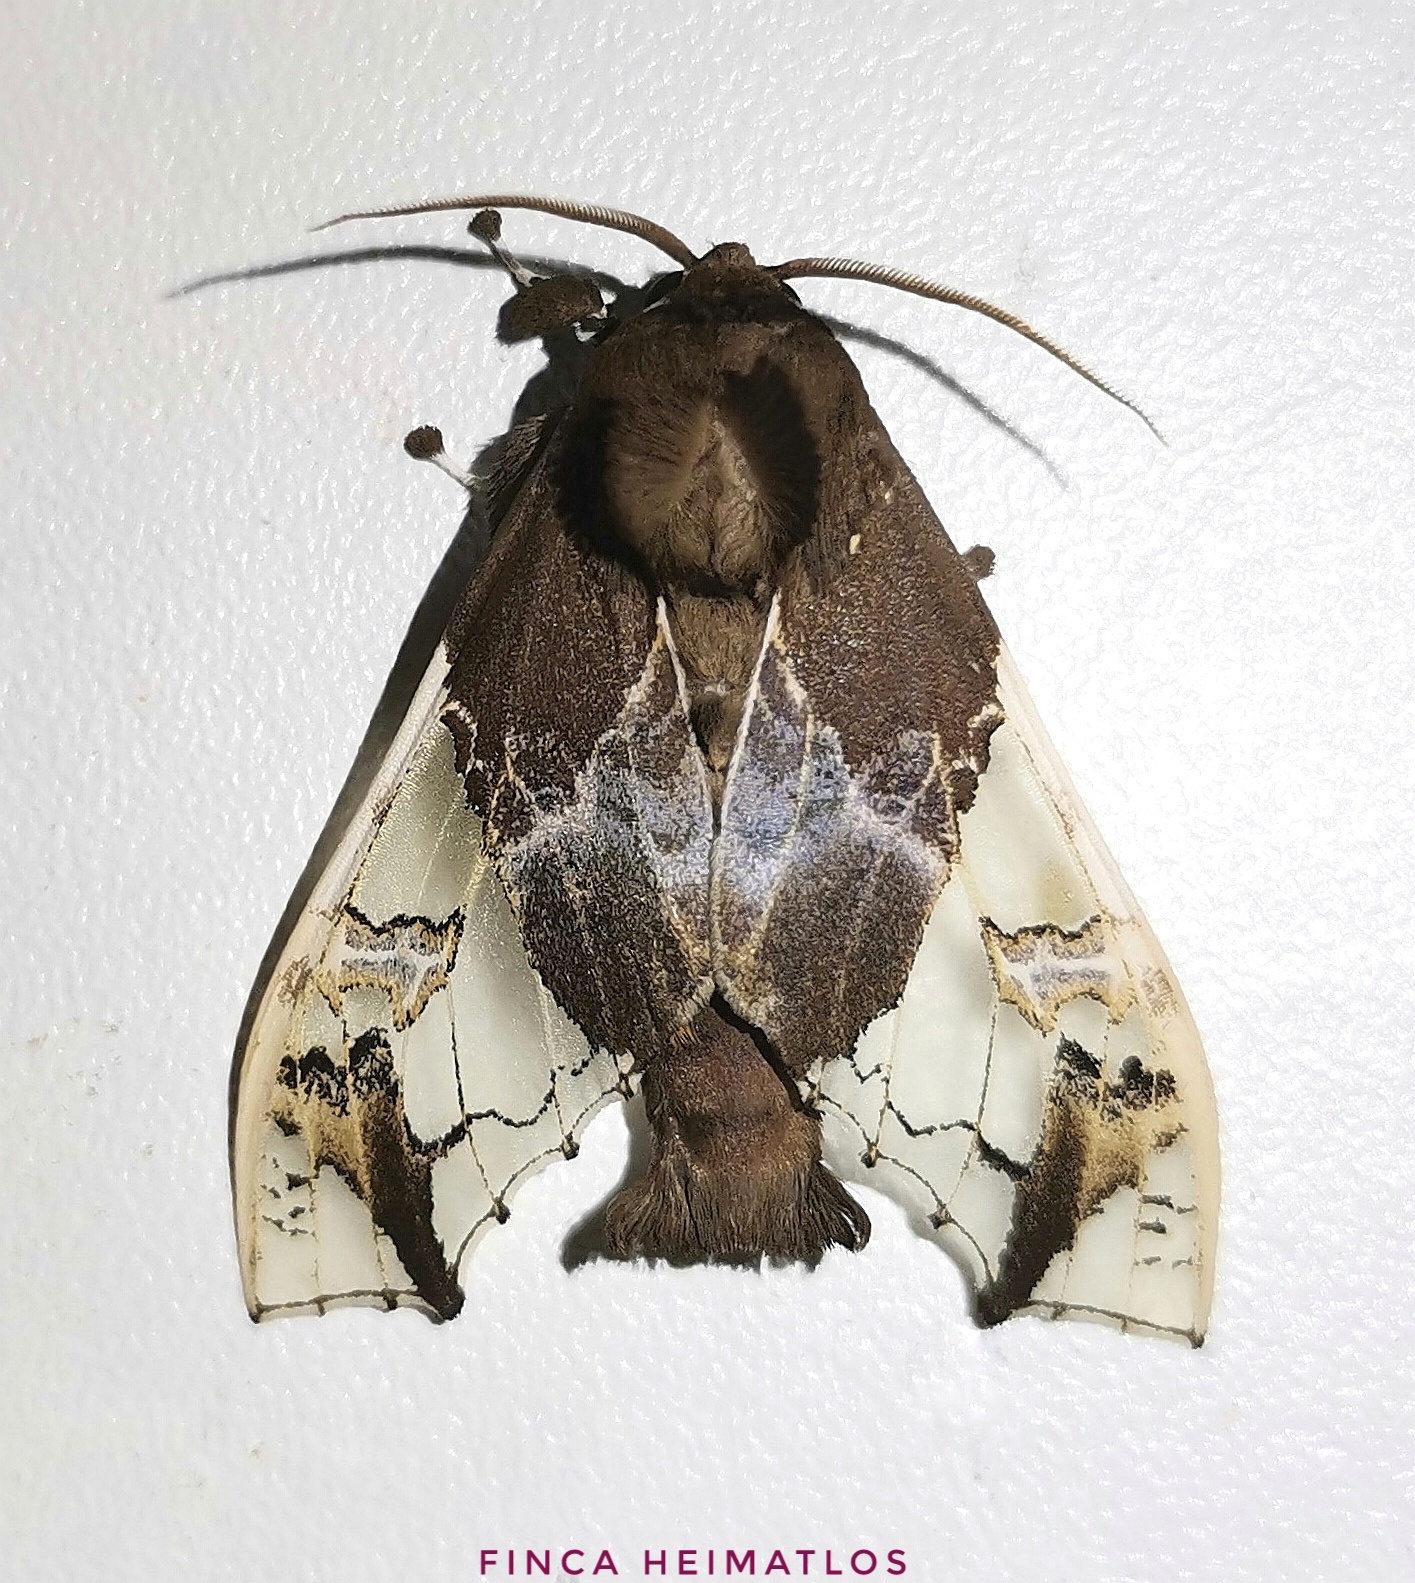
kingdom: Animalia
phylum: Arthropoda
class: Insecta
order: Lepidoptera
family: Erebidae
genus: Parathyris
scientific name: Parathyris semivitrea
